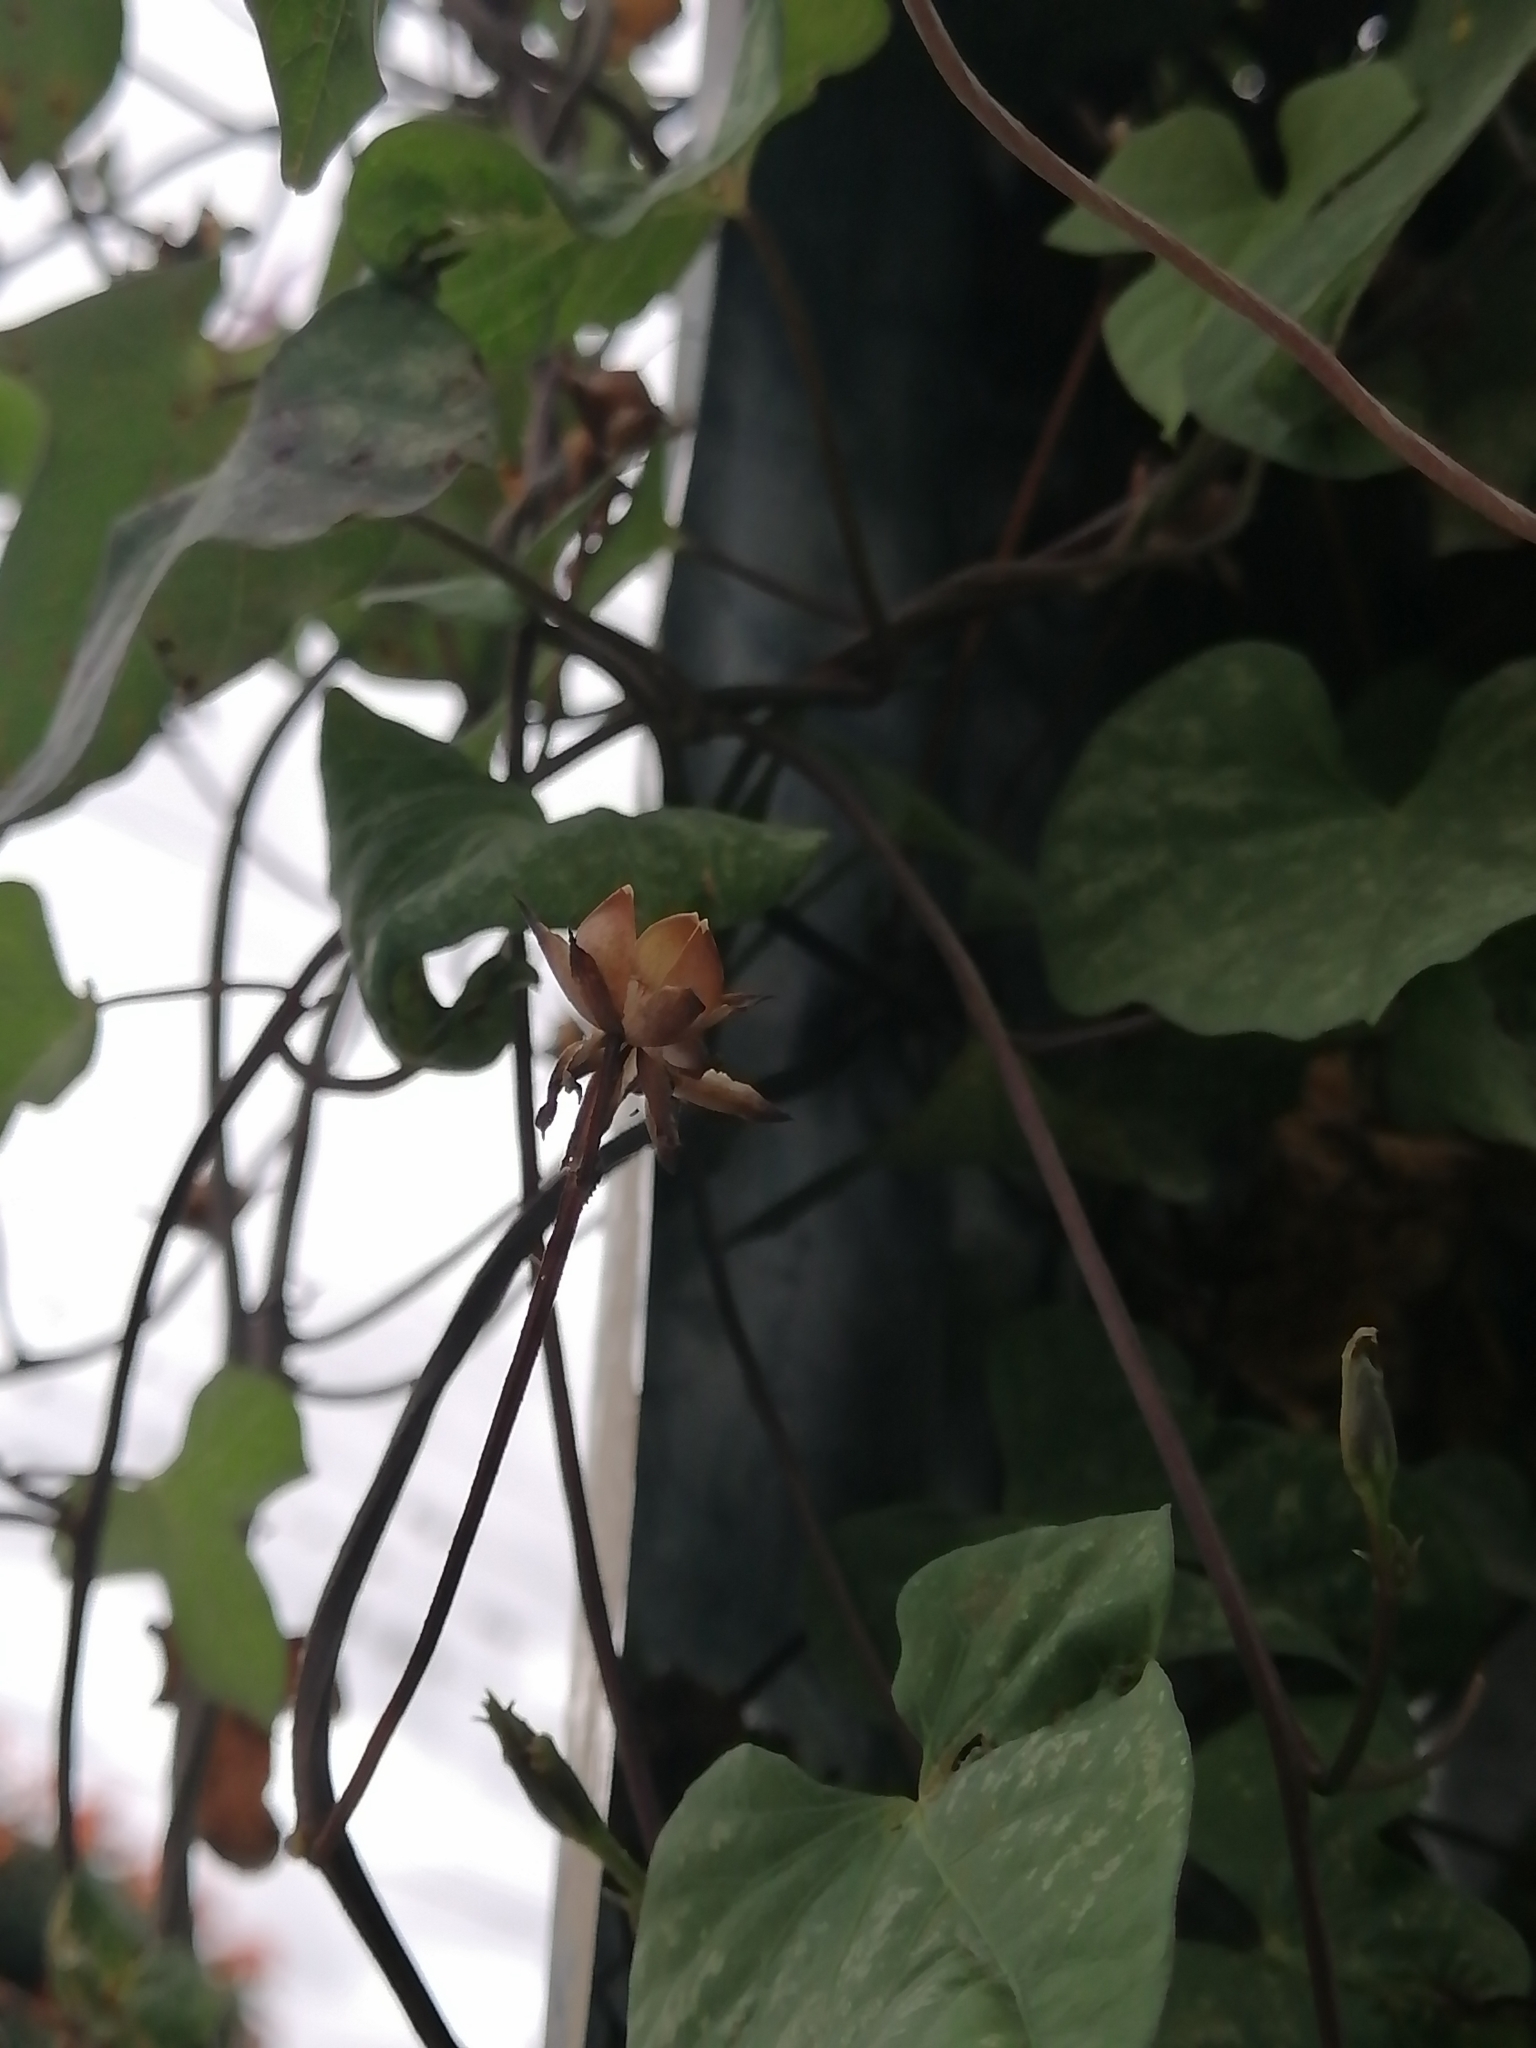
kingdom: Plantae
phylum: Tracheophyta
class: Magnoliopsida
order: Solanales
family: Convolvulaceae
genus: Ipomoea
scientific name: Ipomoea trifida
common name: Cotton morningglory
